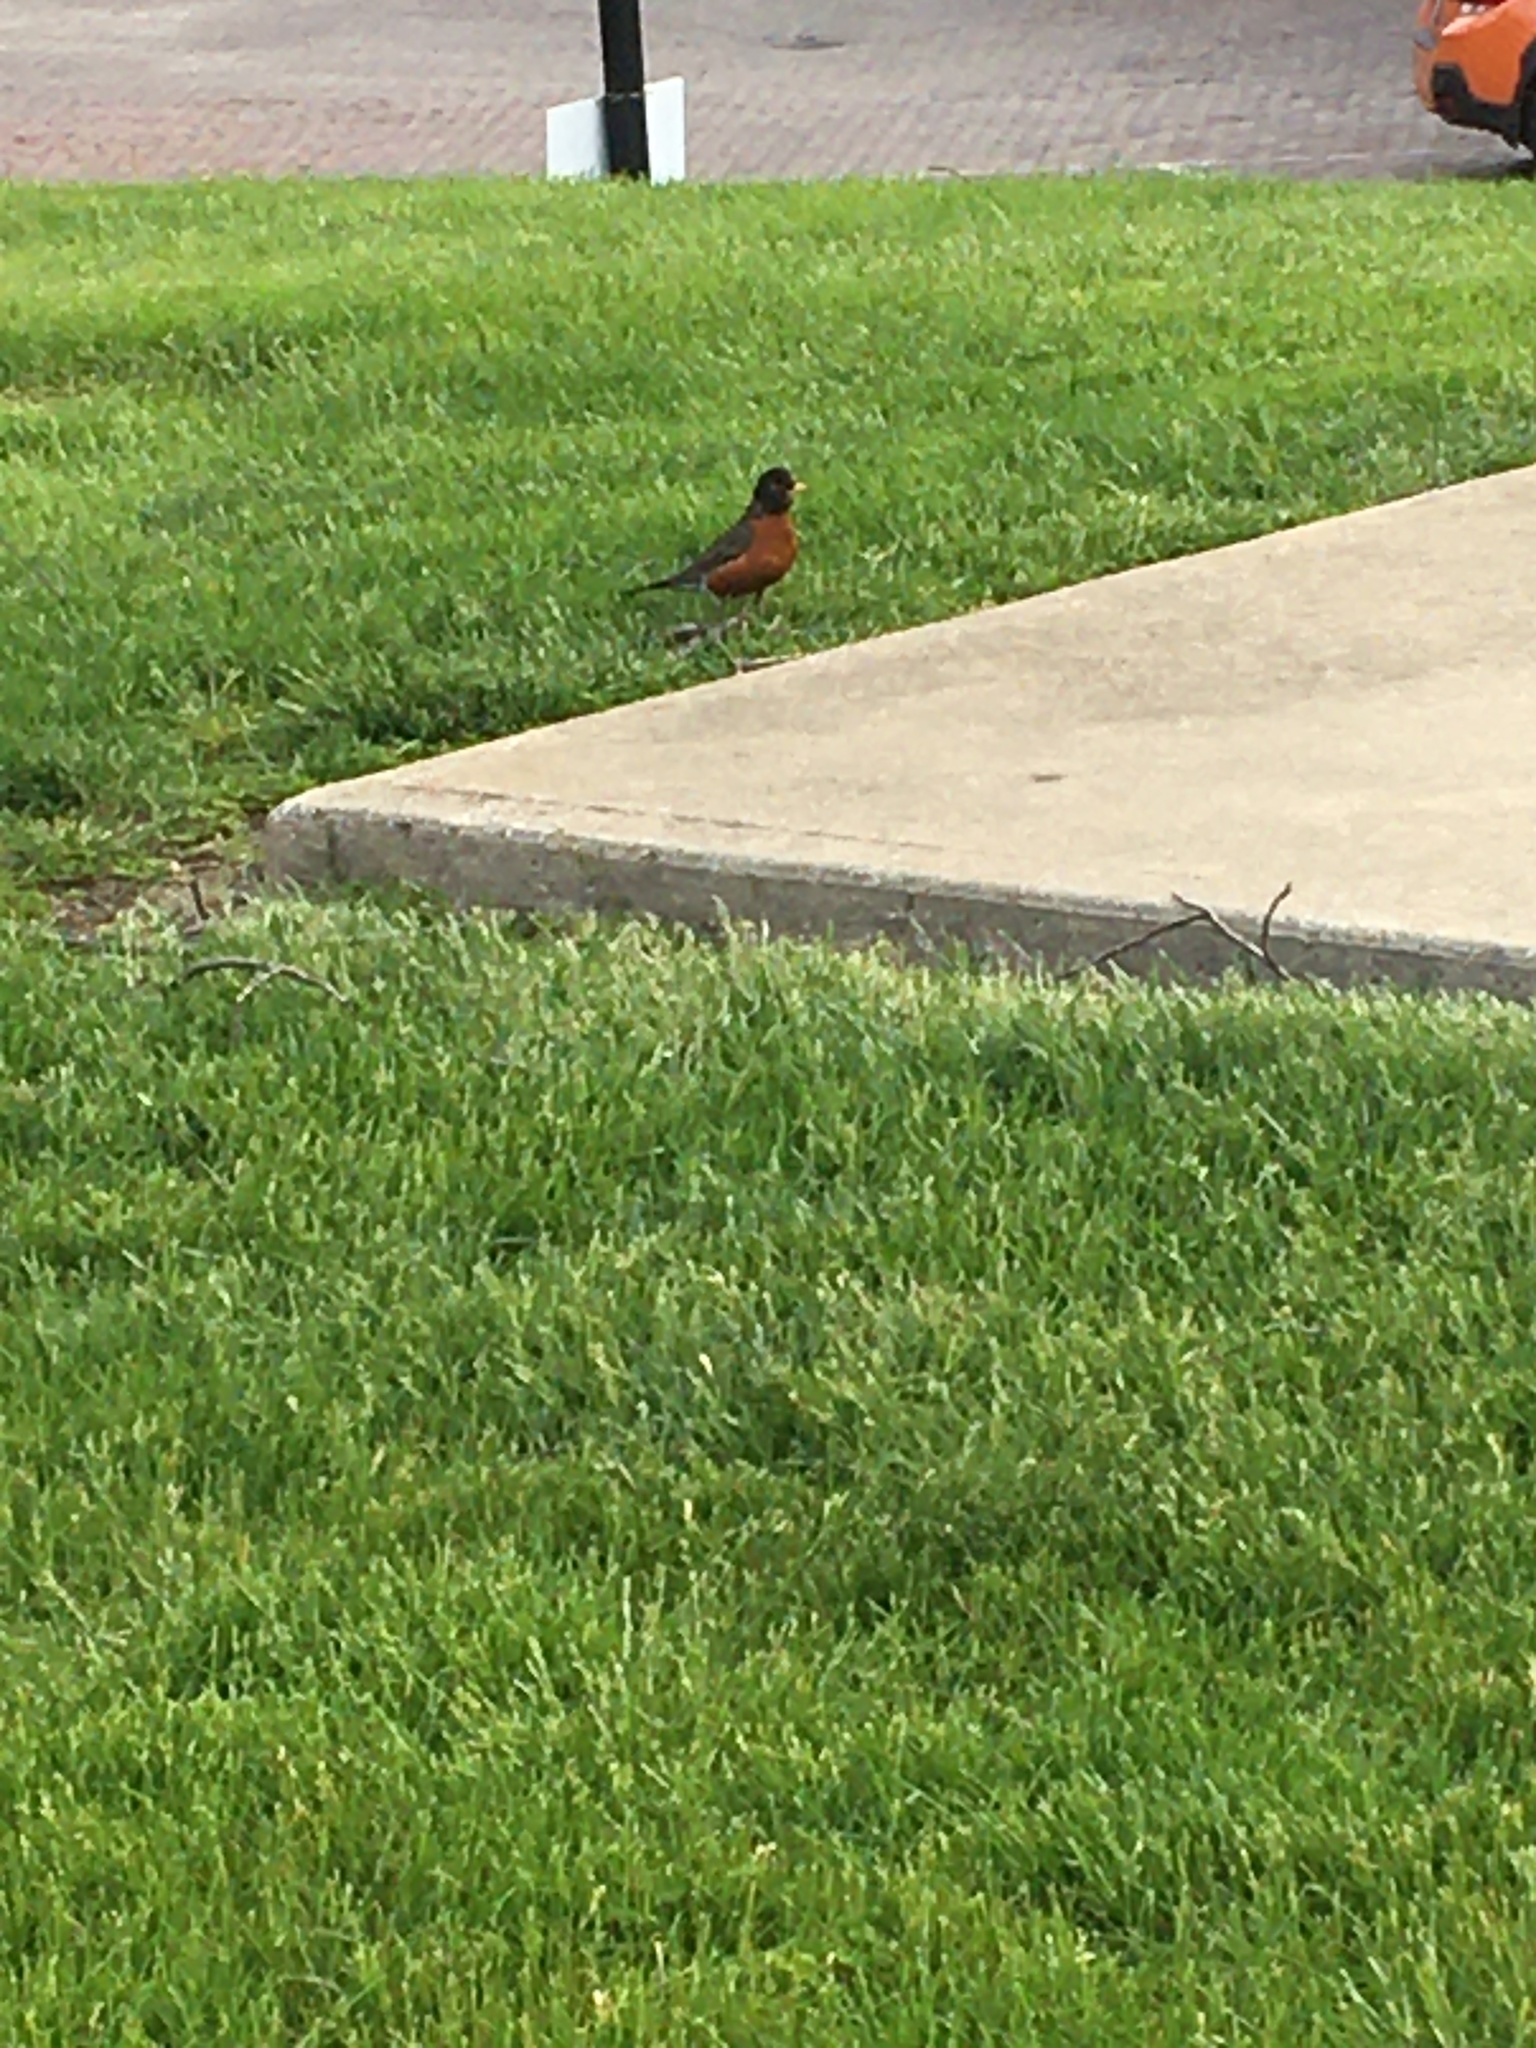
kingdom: Animalia
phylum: Chordata
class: Aves
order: Passeriformes
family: Turdidae
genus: Turdus
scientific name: Turdus migratorius
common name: American robin
